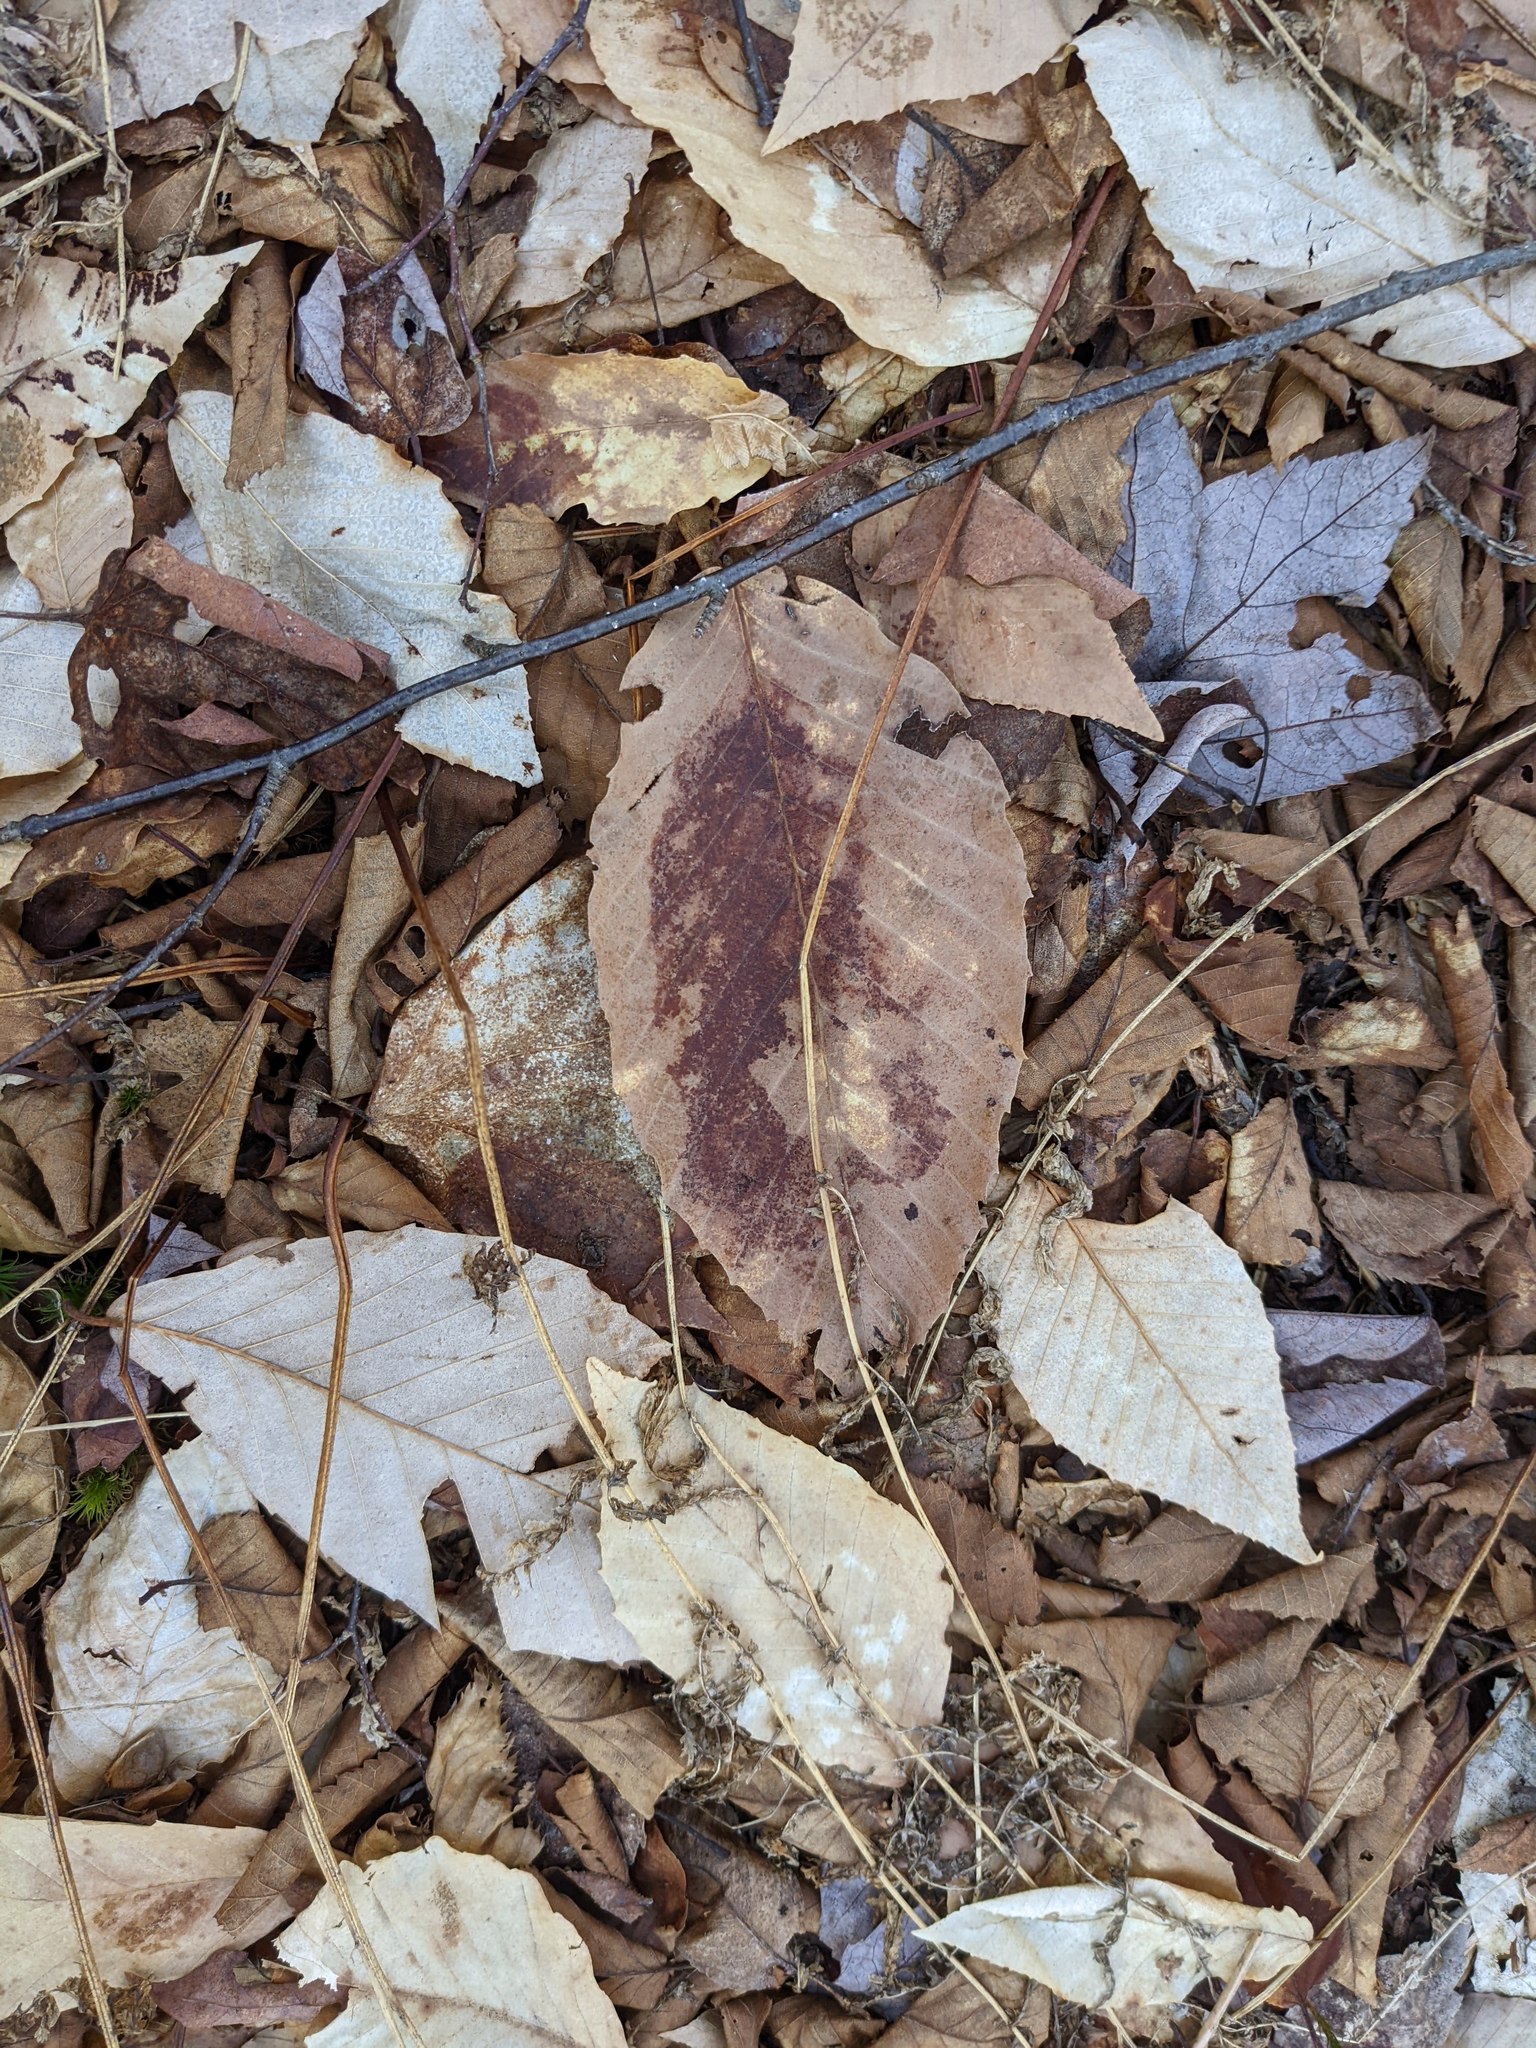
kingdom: Plantae
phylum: Tracheophyta
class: Magnoliopsida
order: Fagales
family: Fagaceae
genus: Fagus
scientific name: Fagus grandifolia
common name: American beech
